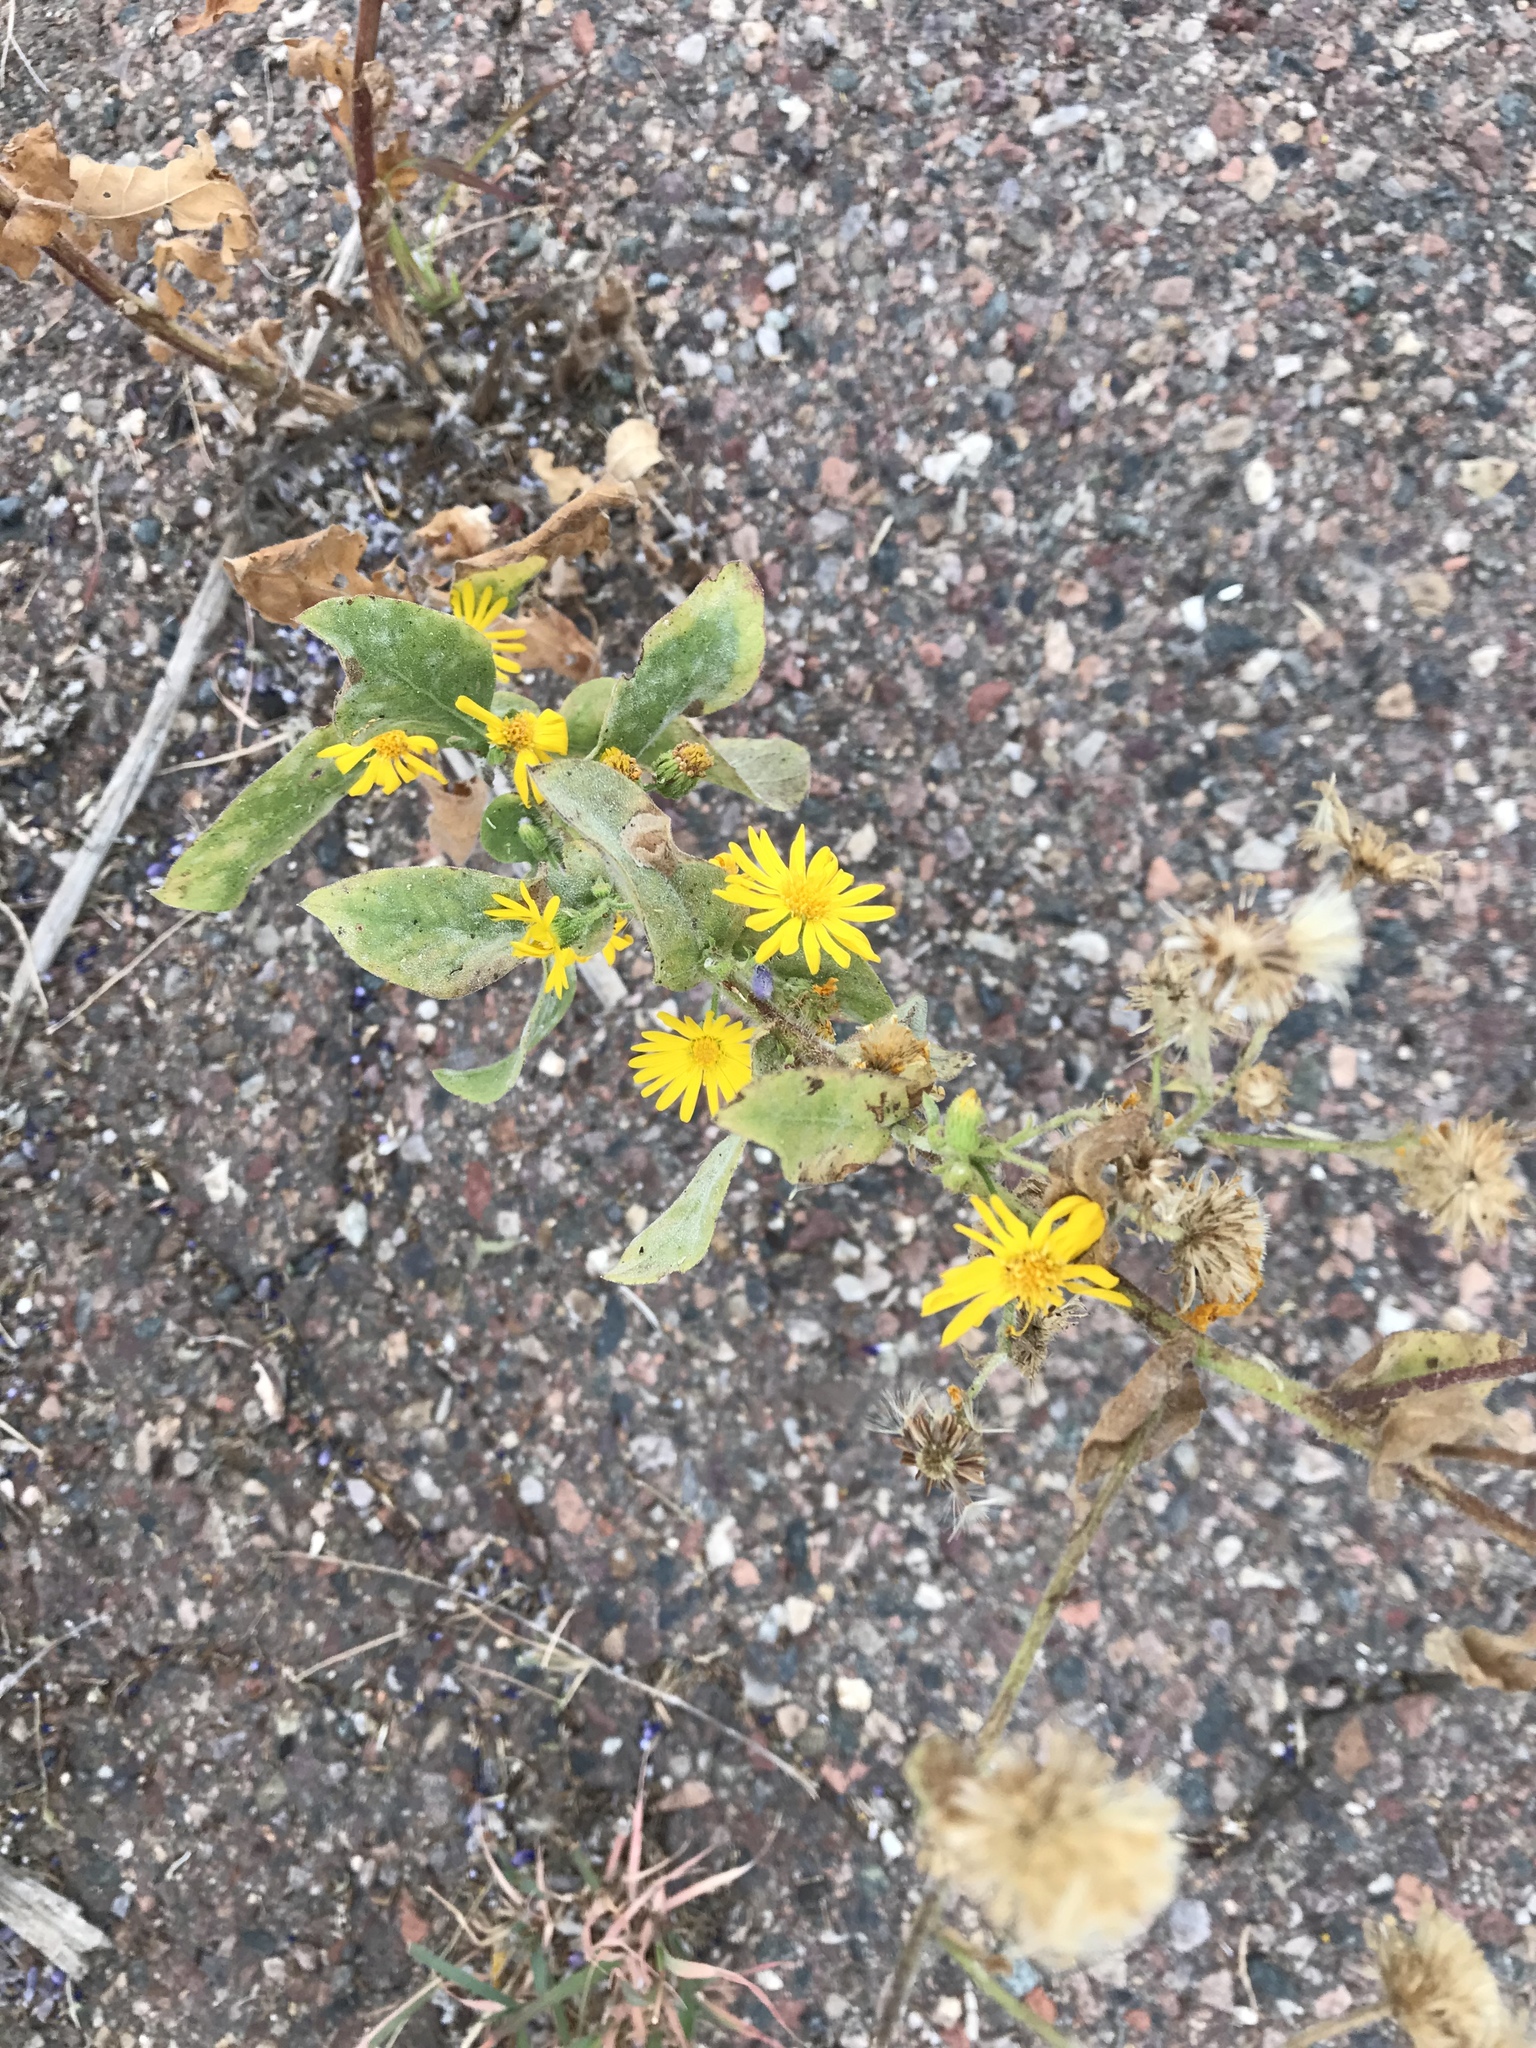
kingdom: Plantae
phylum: Tracheophyta
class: Magnoliopsida
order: Asterales
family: Asteraceae
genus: Heterotheca
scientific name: Heterotheca subaxillaris
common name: Camphorweed
